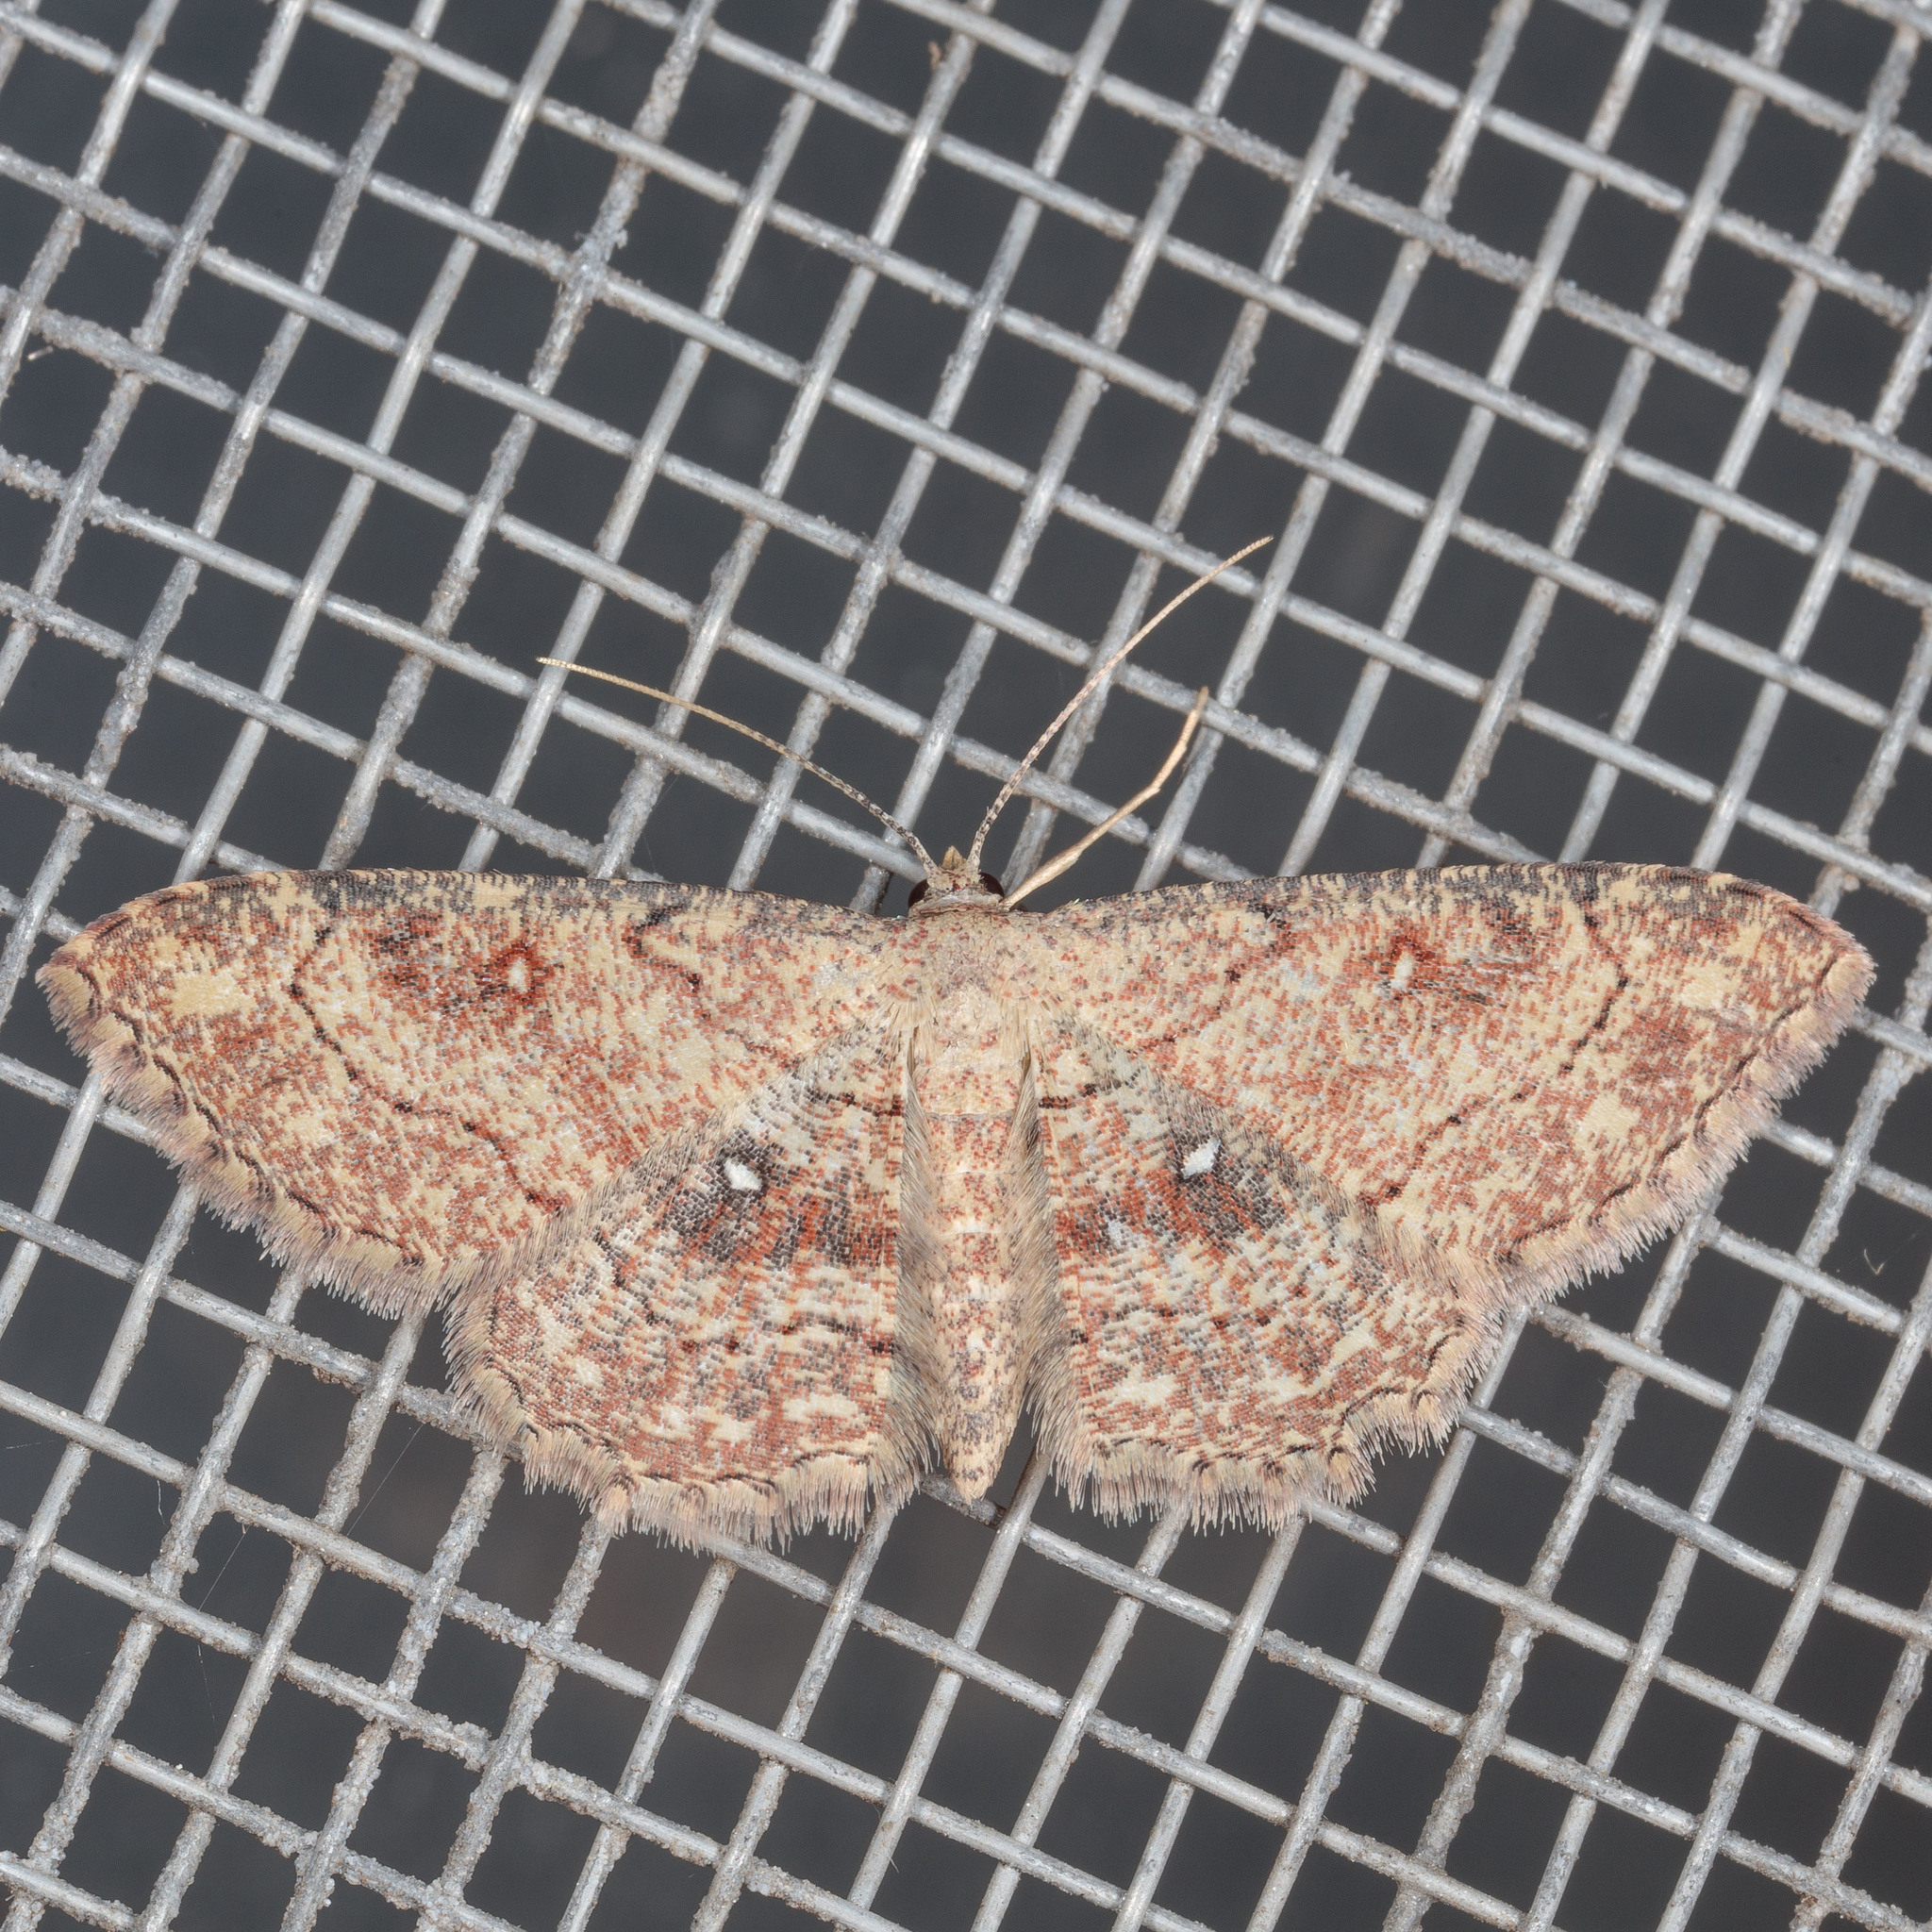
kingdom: Animalia
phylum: Arthropoda
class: Insecta
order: Lepidoptera
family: Geometridae
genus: Cyclophora
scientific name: Cyclophora nanaria
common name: Cankerworm
